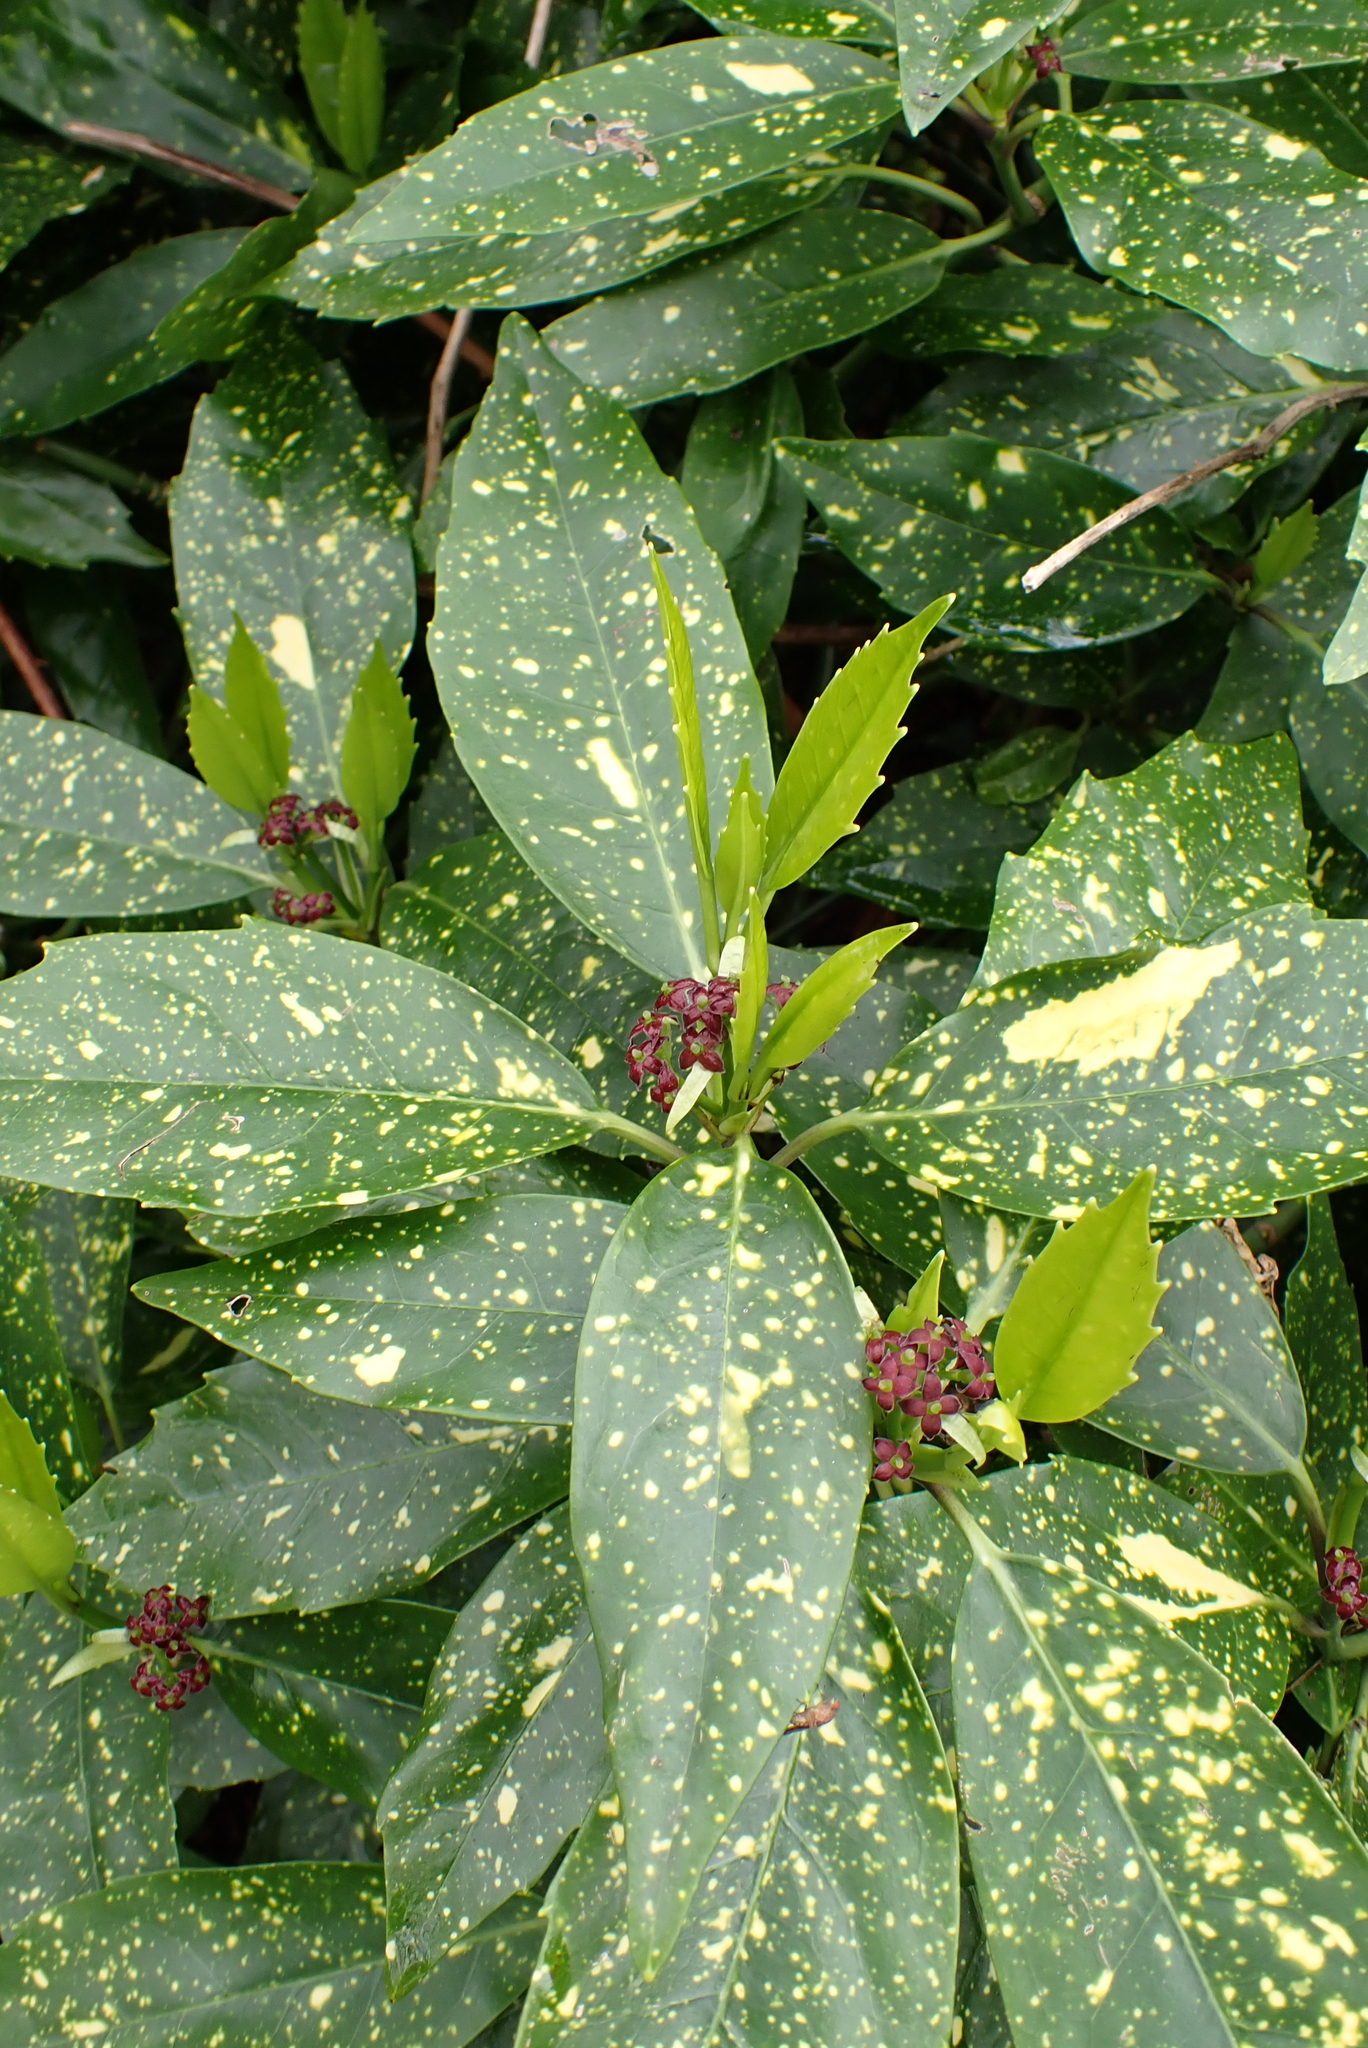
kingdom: Plantae
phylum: Tracheophyta
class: Magnoliopsida
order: Garryales
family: Garryaceae
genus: Aucuba
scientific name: Aucuba japonica
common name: Spotted-laurel
